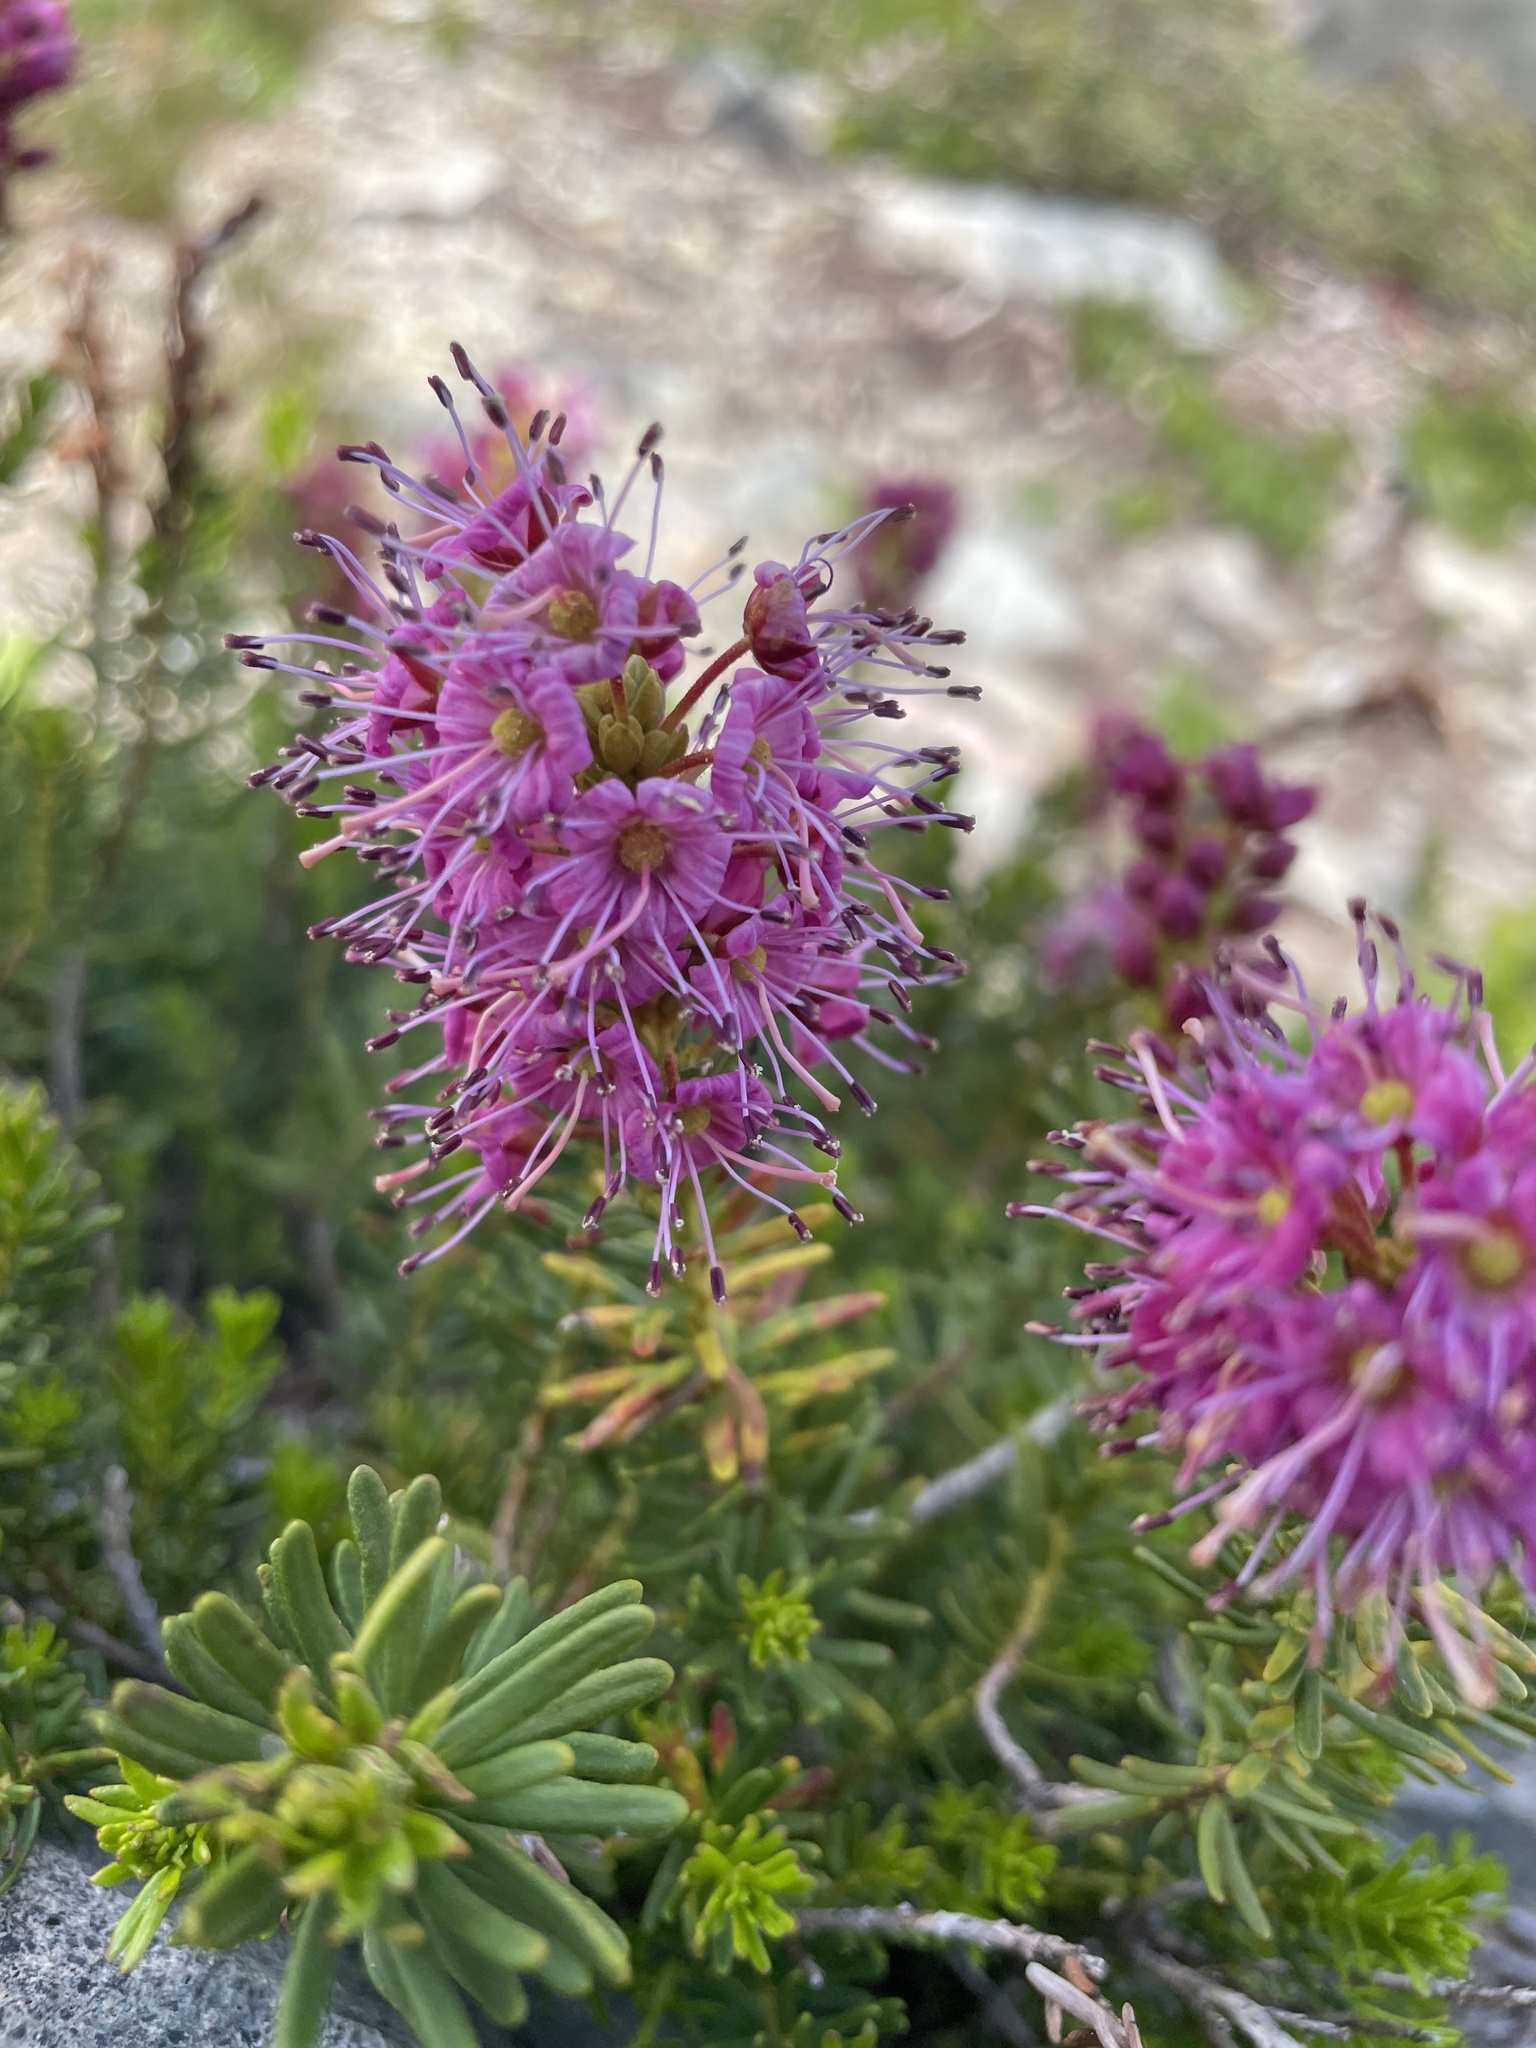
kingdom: Plantae
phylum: Tracheophyta
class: Magnoliopsida
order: Ericales
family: Ericaceae
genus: Phyllodoce
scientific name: Phyllodoce breweri
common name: Brewer's mountain-heather
